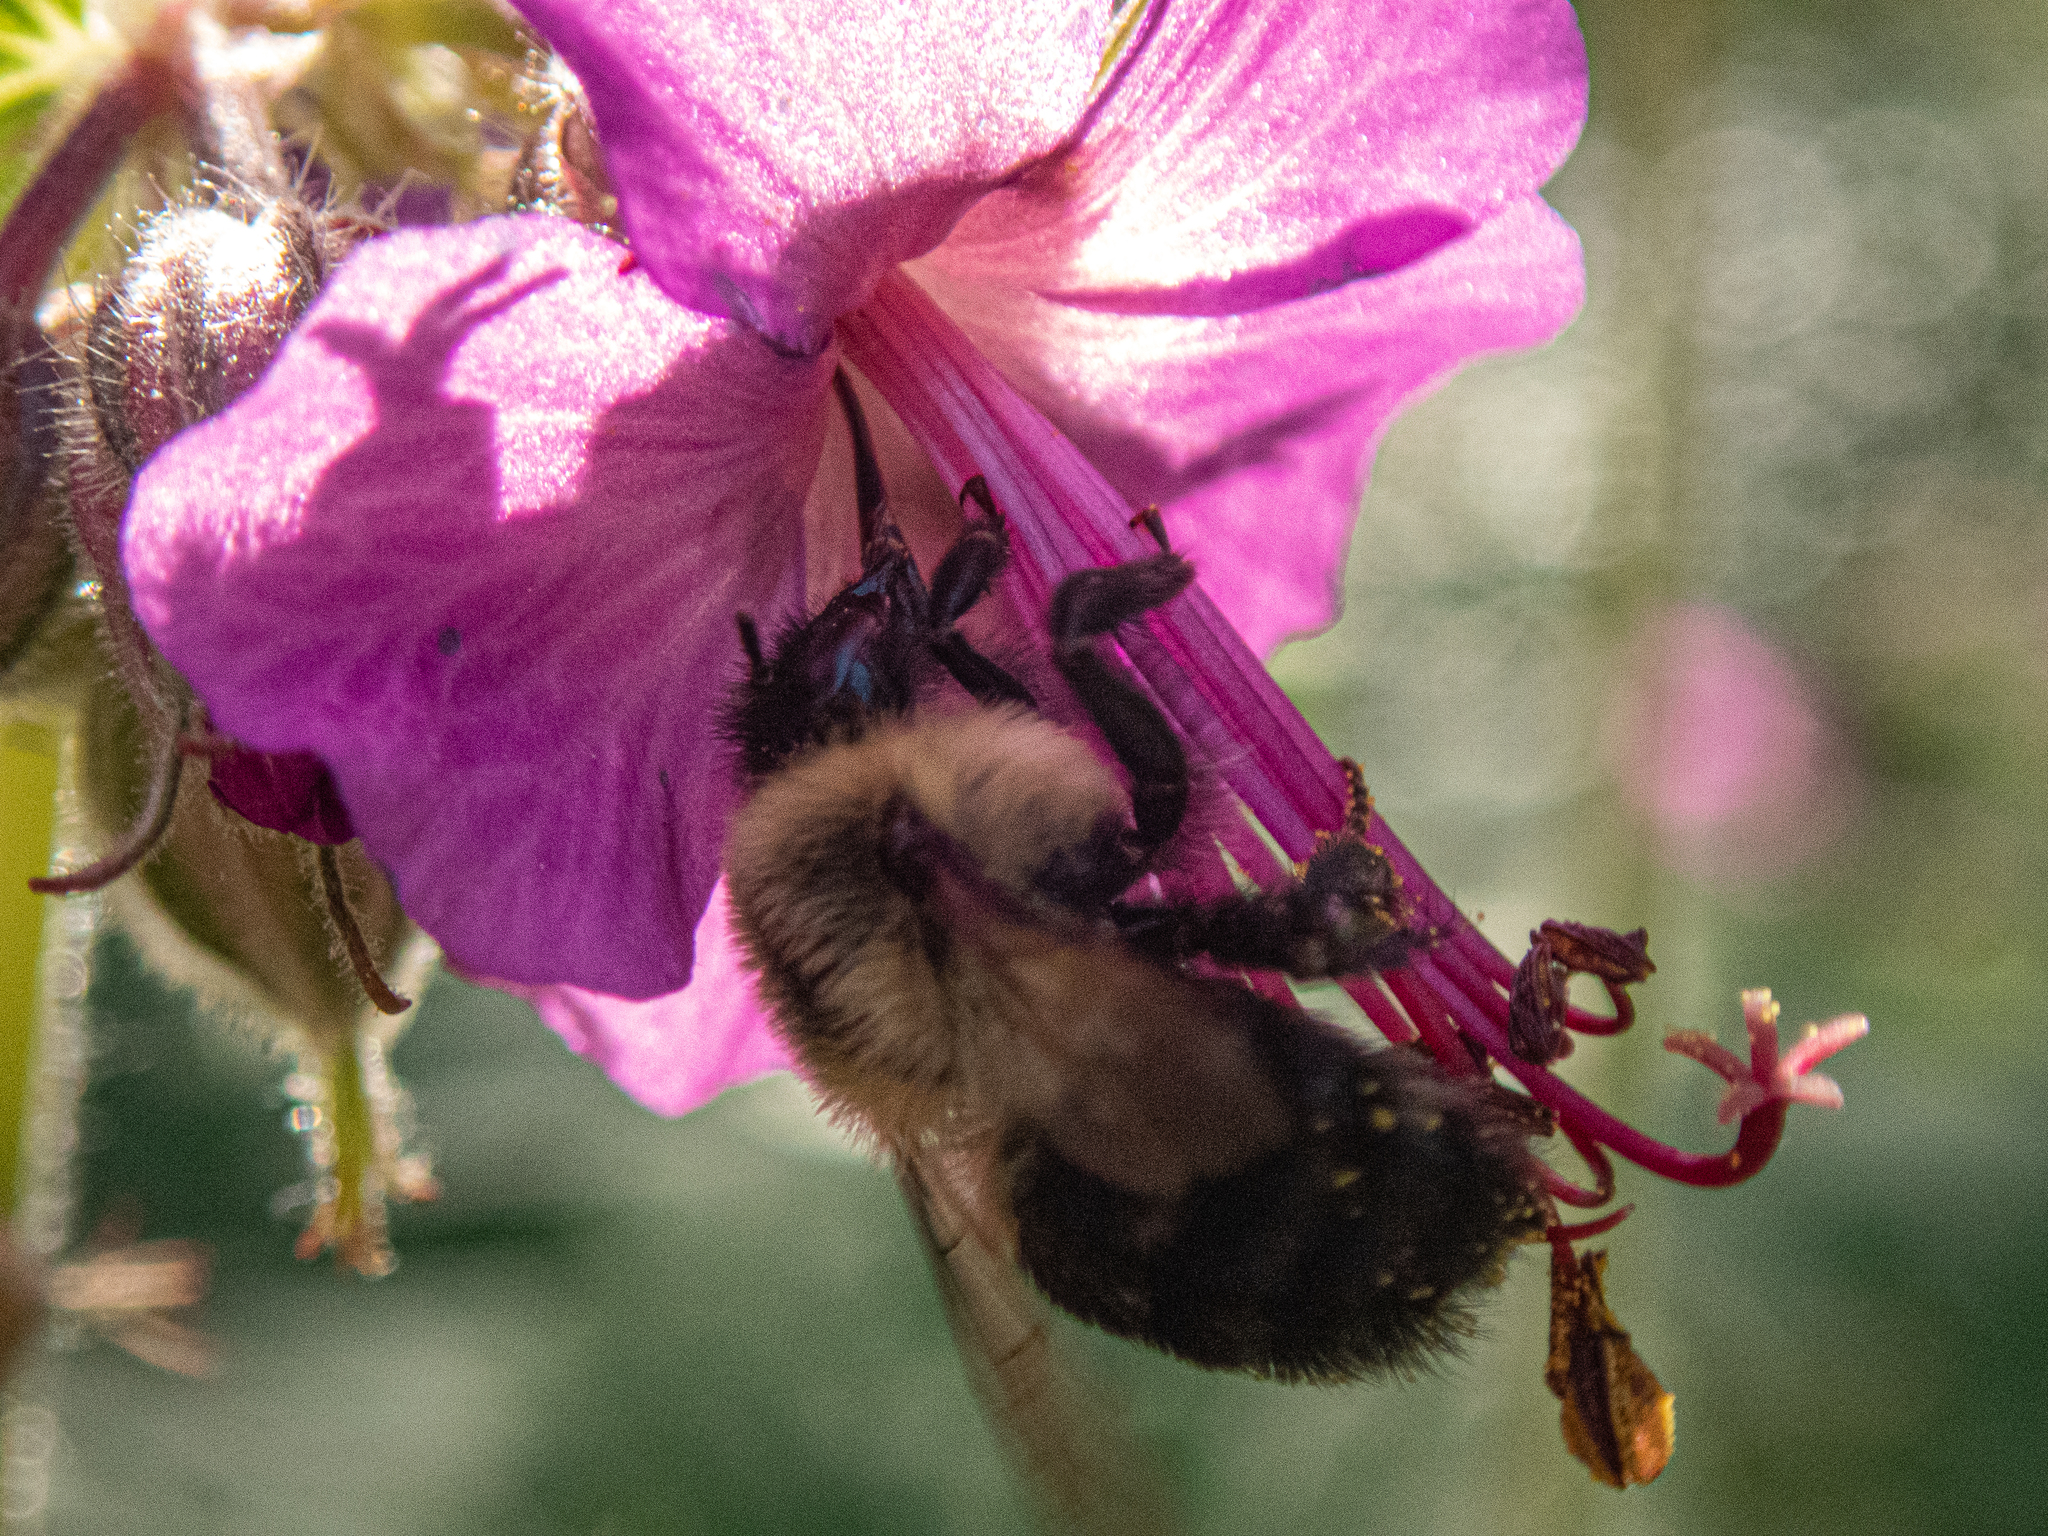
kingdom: Animalia
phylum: Arthropoda
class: Insecta
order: Hymenoptera
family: Apidae
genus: Bombus
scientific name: Bombus impatiens
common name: Common eastern bumble bee
